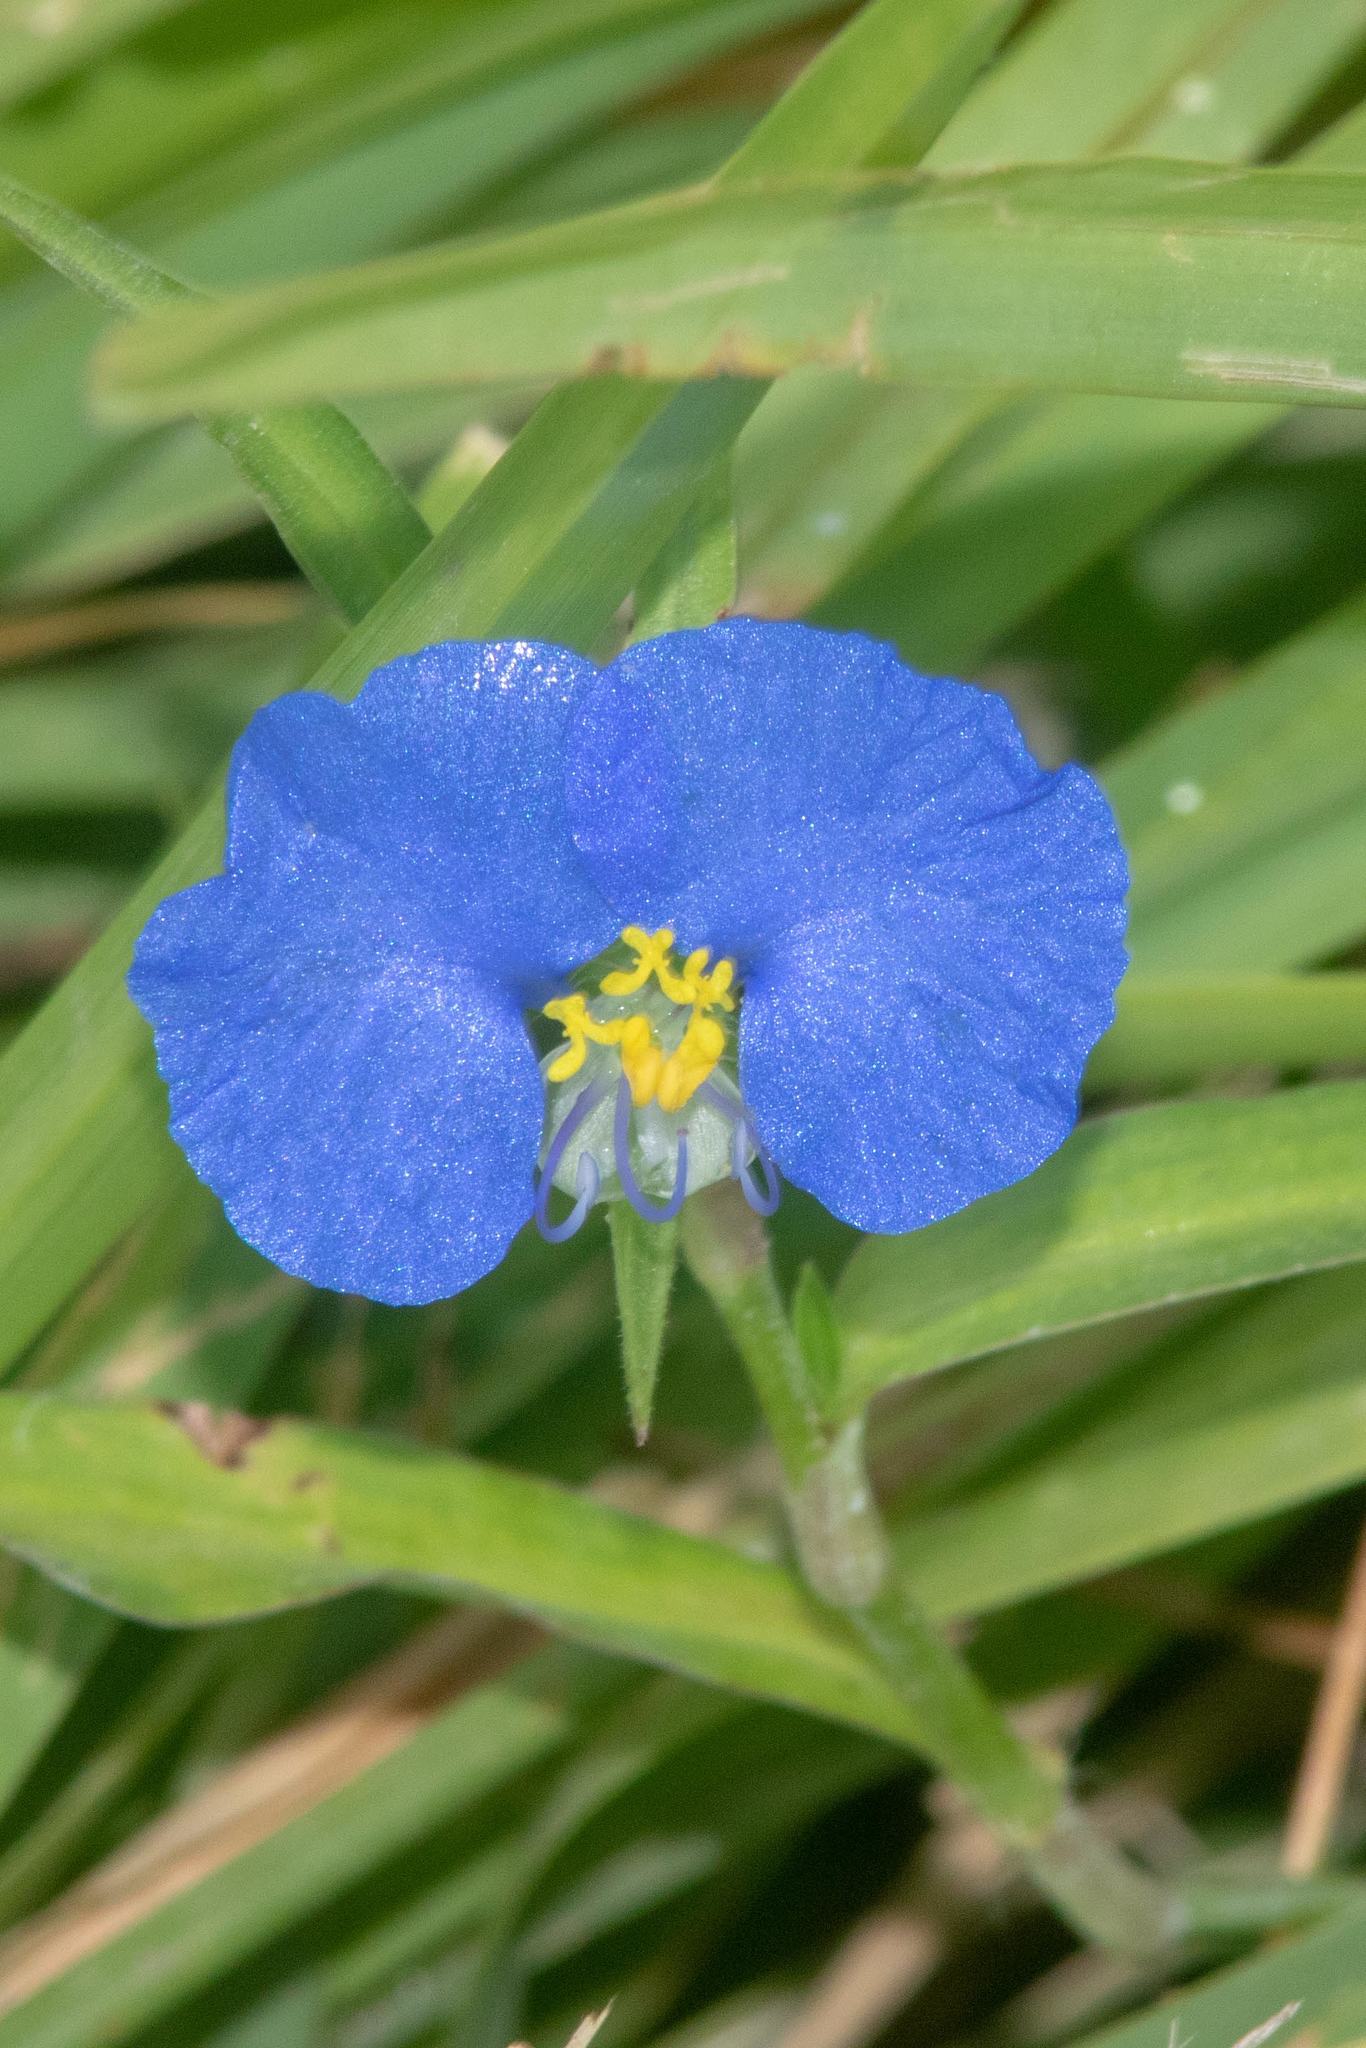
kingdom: Plantae
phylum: Tracheophyta
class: Liliopsida
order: Commelinales
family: Commelinaceae
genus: Commelina
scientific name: Commelina erecta
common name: Blousel blommetjie
